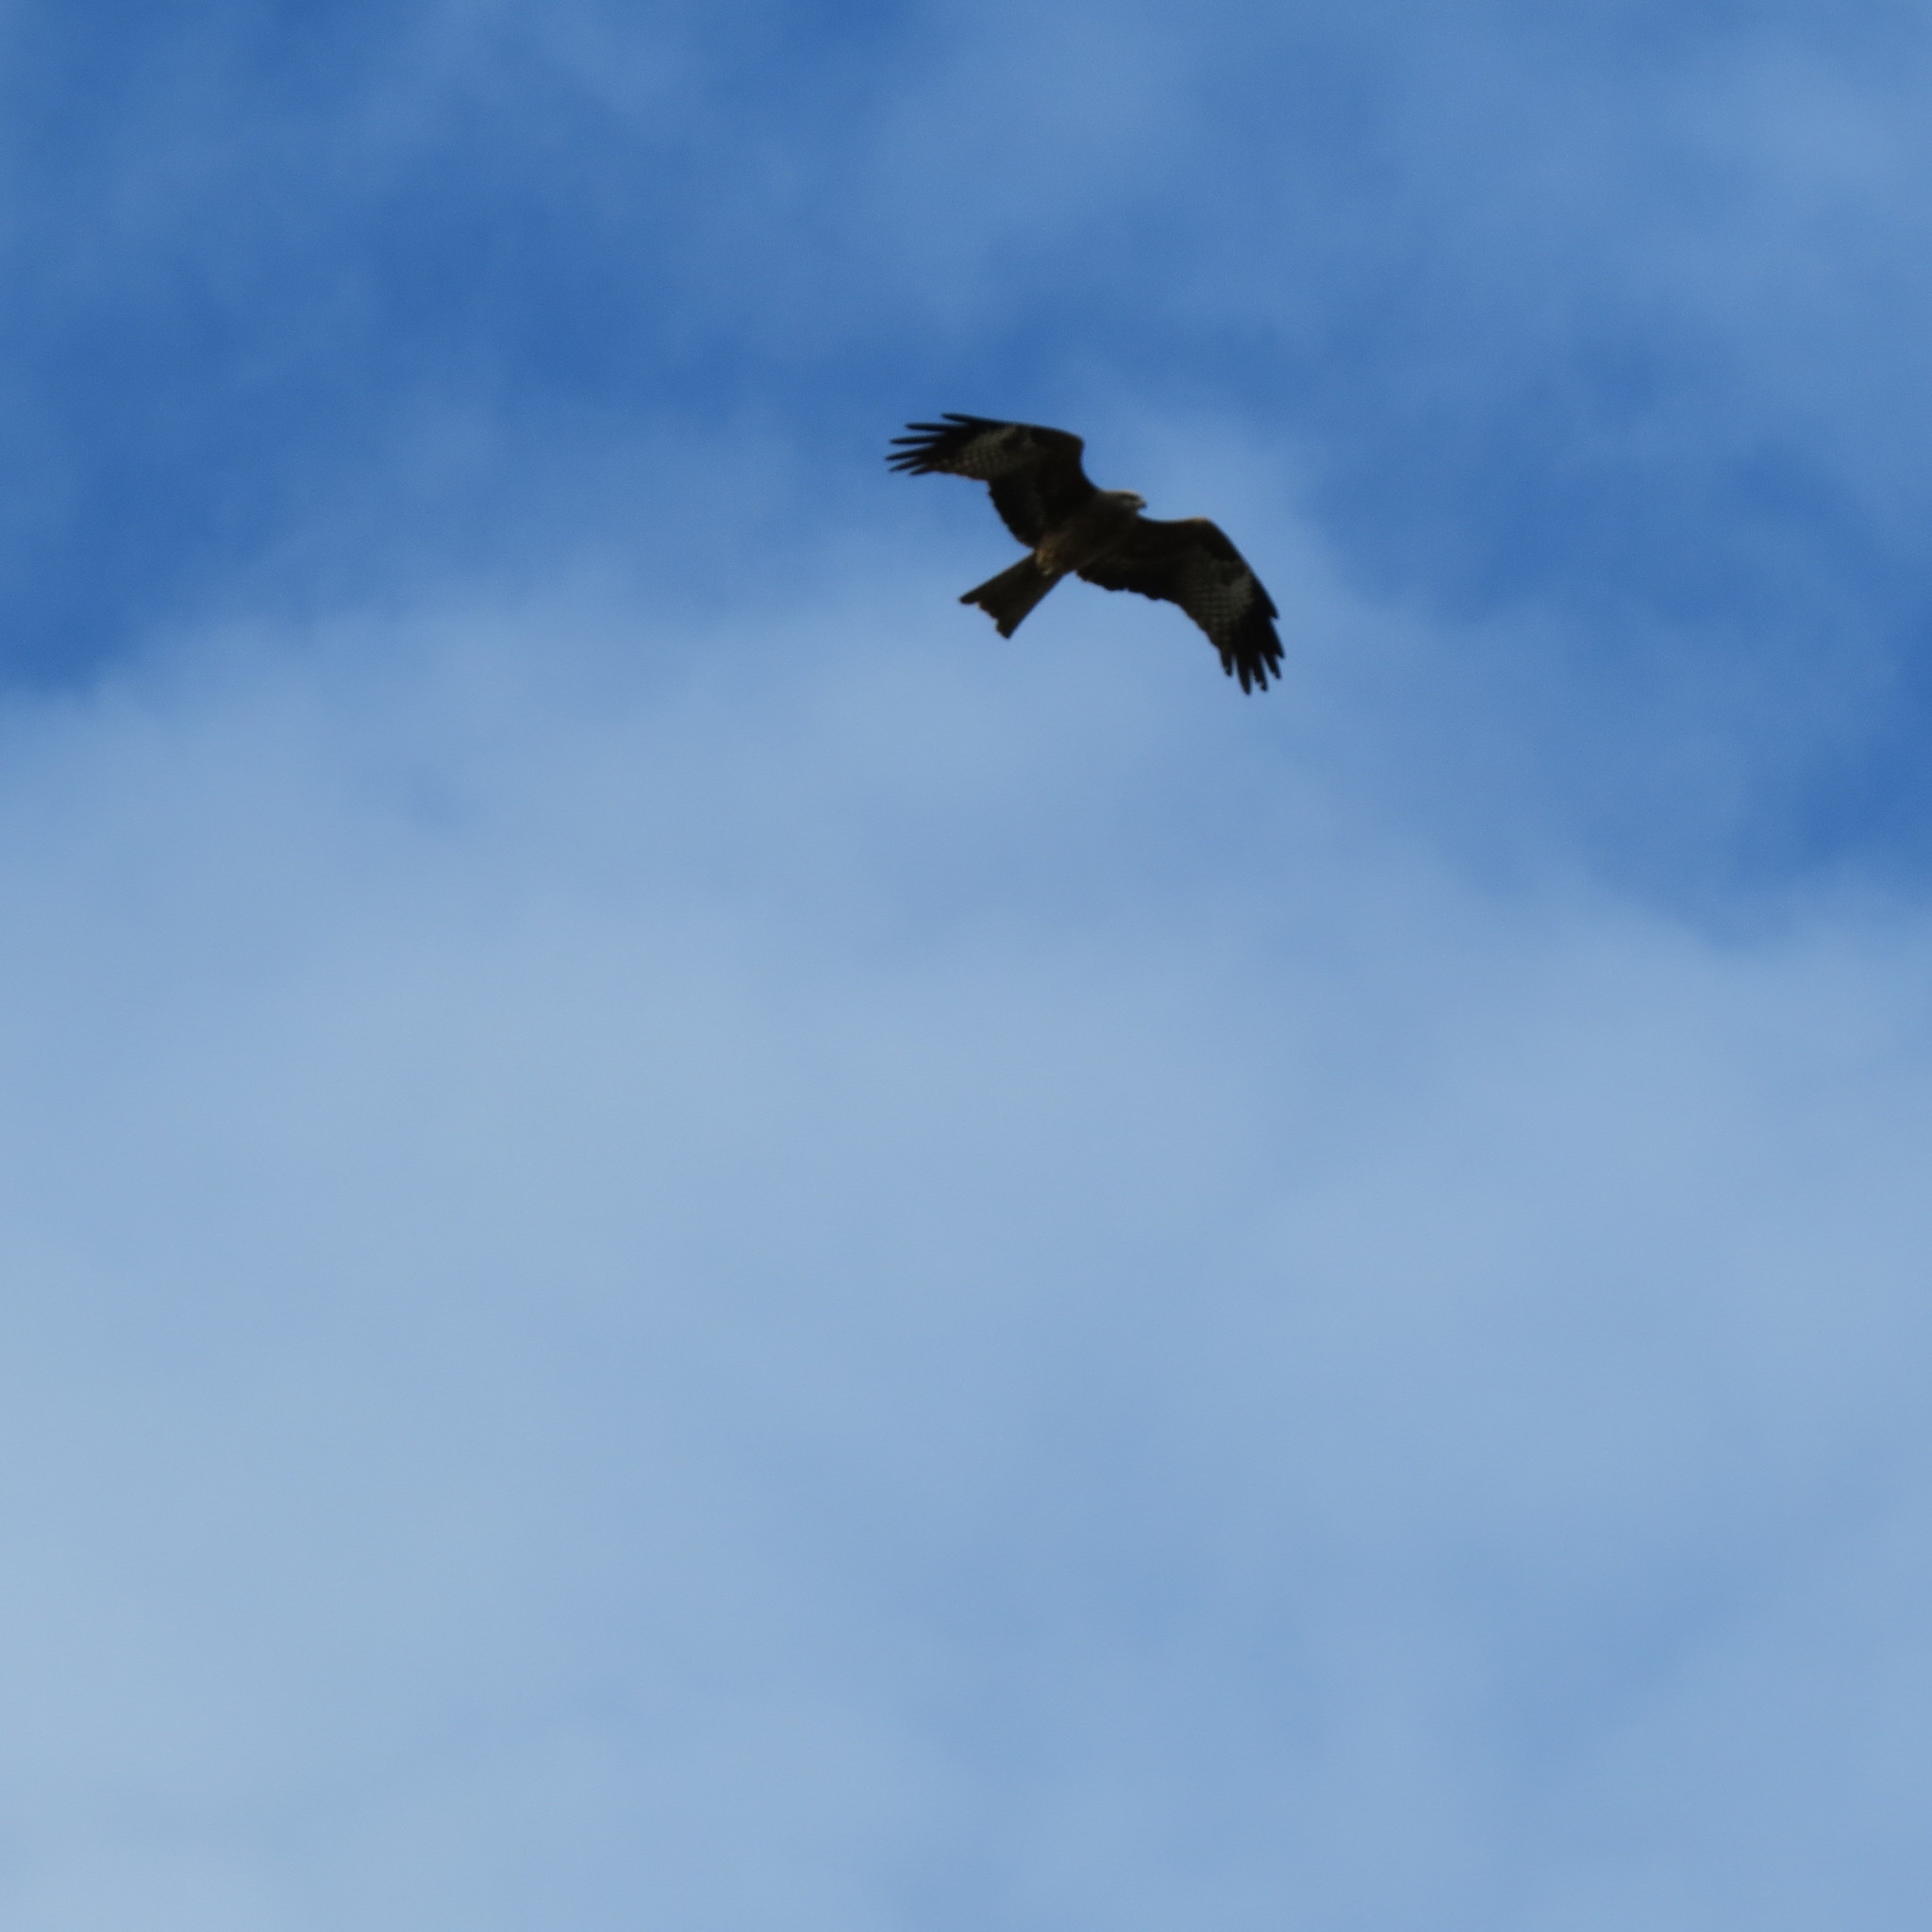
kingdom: Animalia
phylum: Chordata
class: Aves
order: Accipitriformes
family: Accipitridae
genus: Milvus
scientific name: Milvus migrans
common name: Black kite
